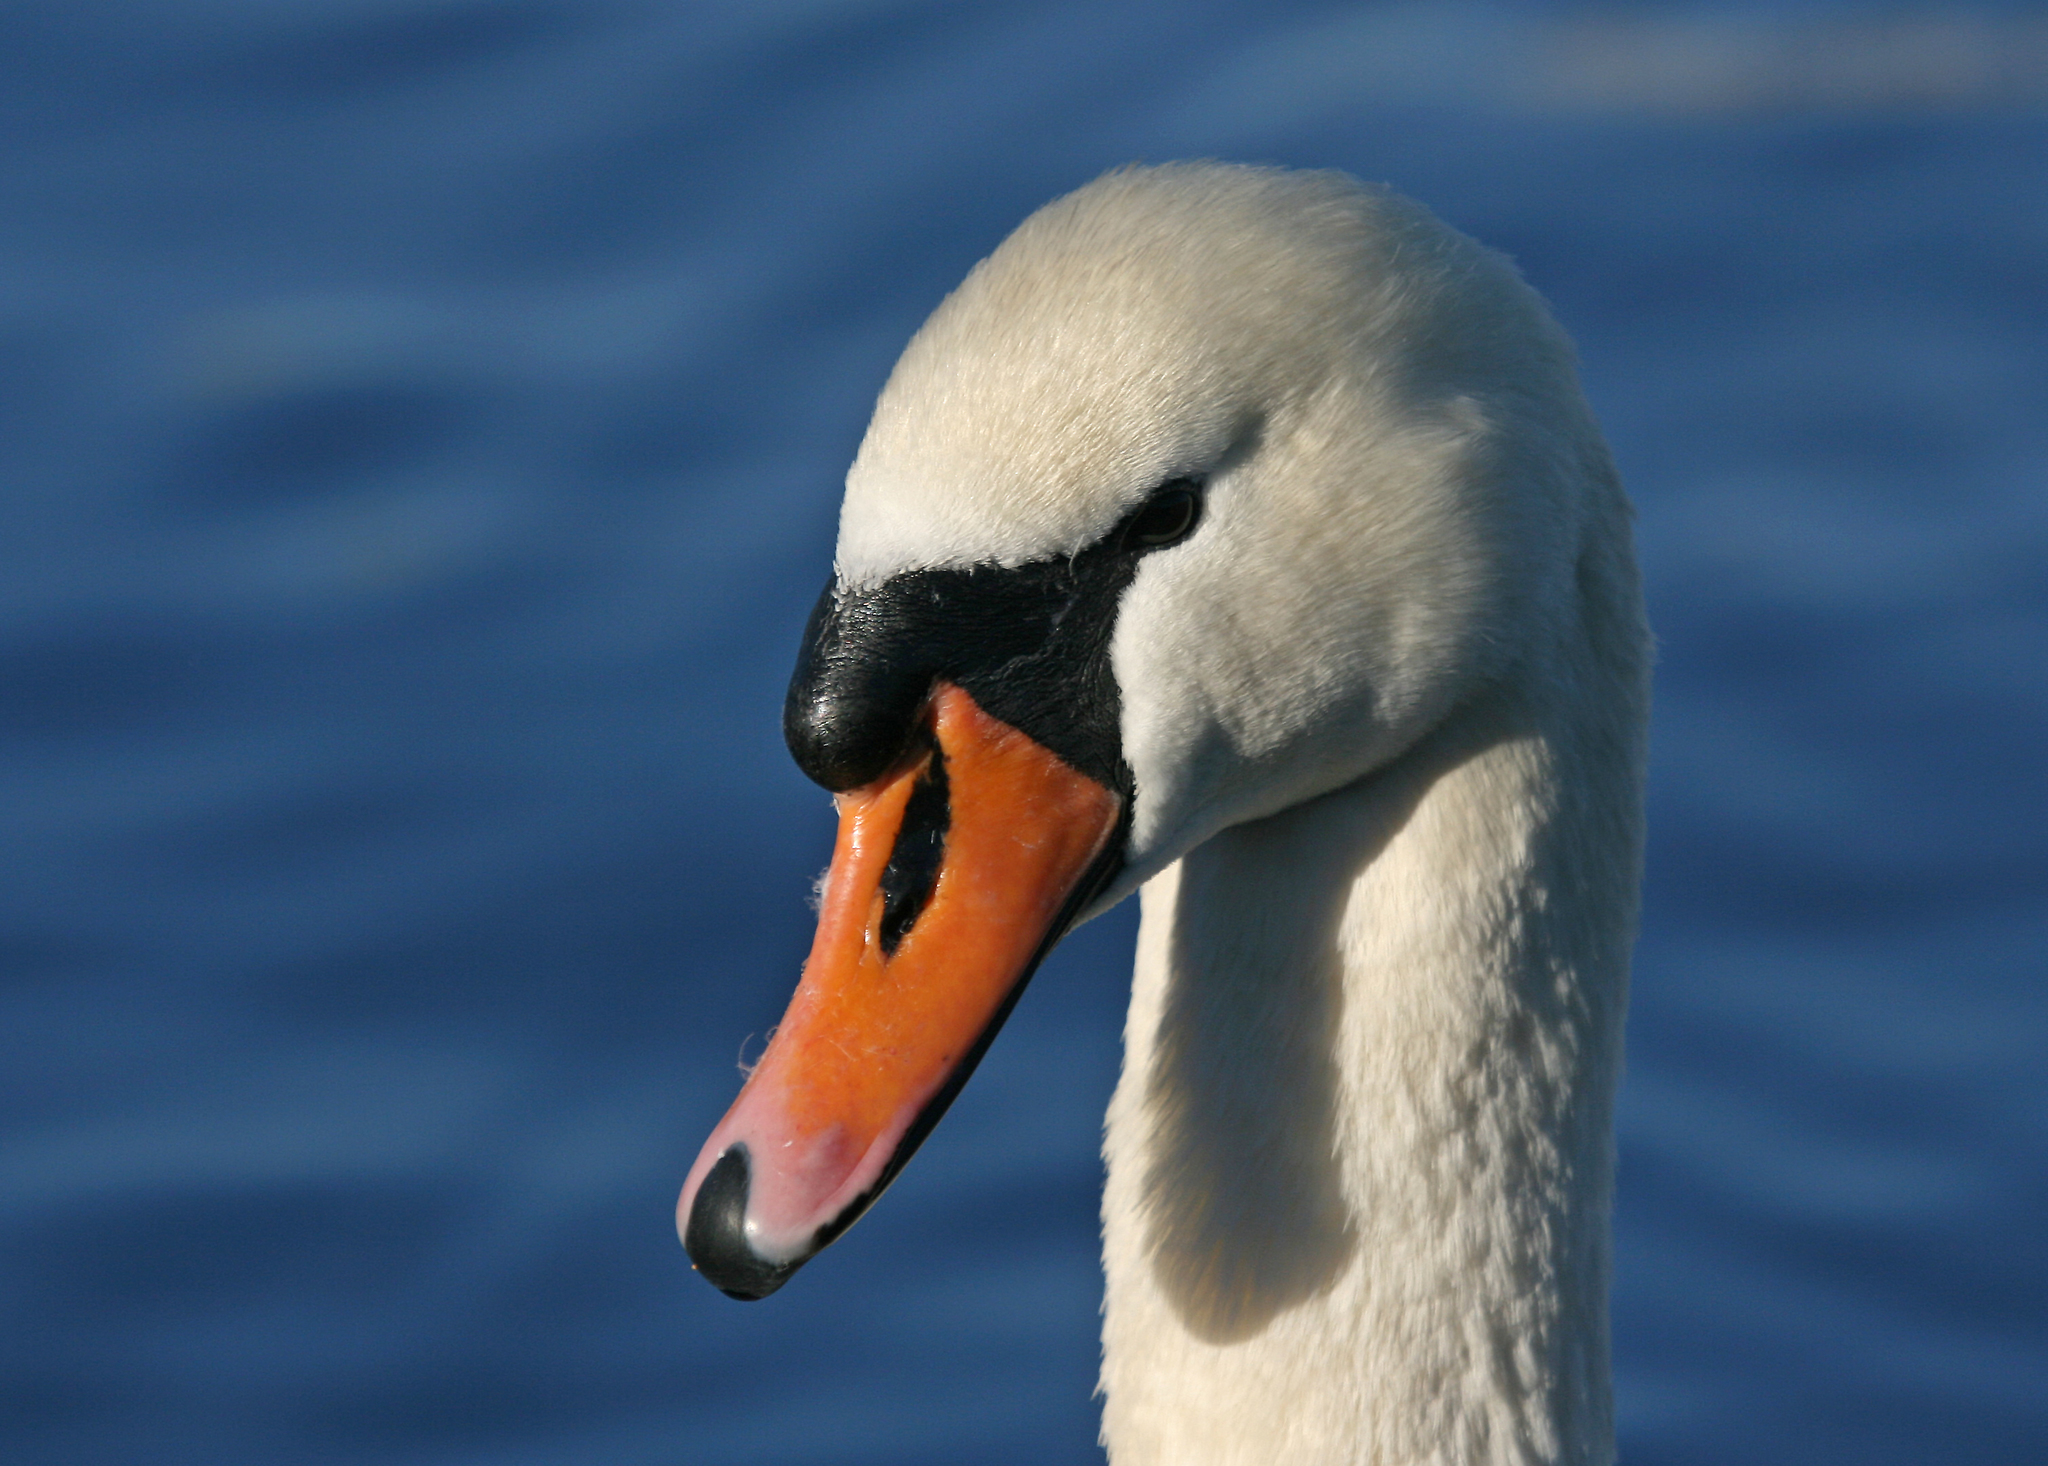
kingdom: Animalia
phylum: Chordata
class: Aves
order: Anseriformes
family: Anatidae
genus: Cygnus
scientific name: Cygnus olor
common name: Mute swan
